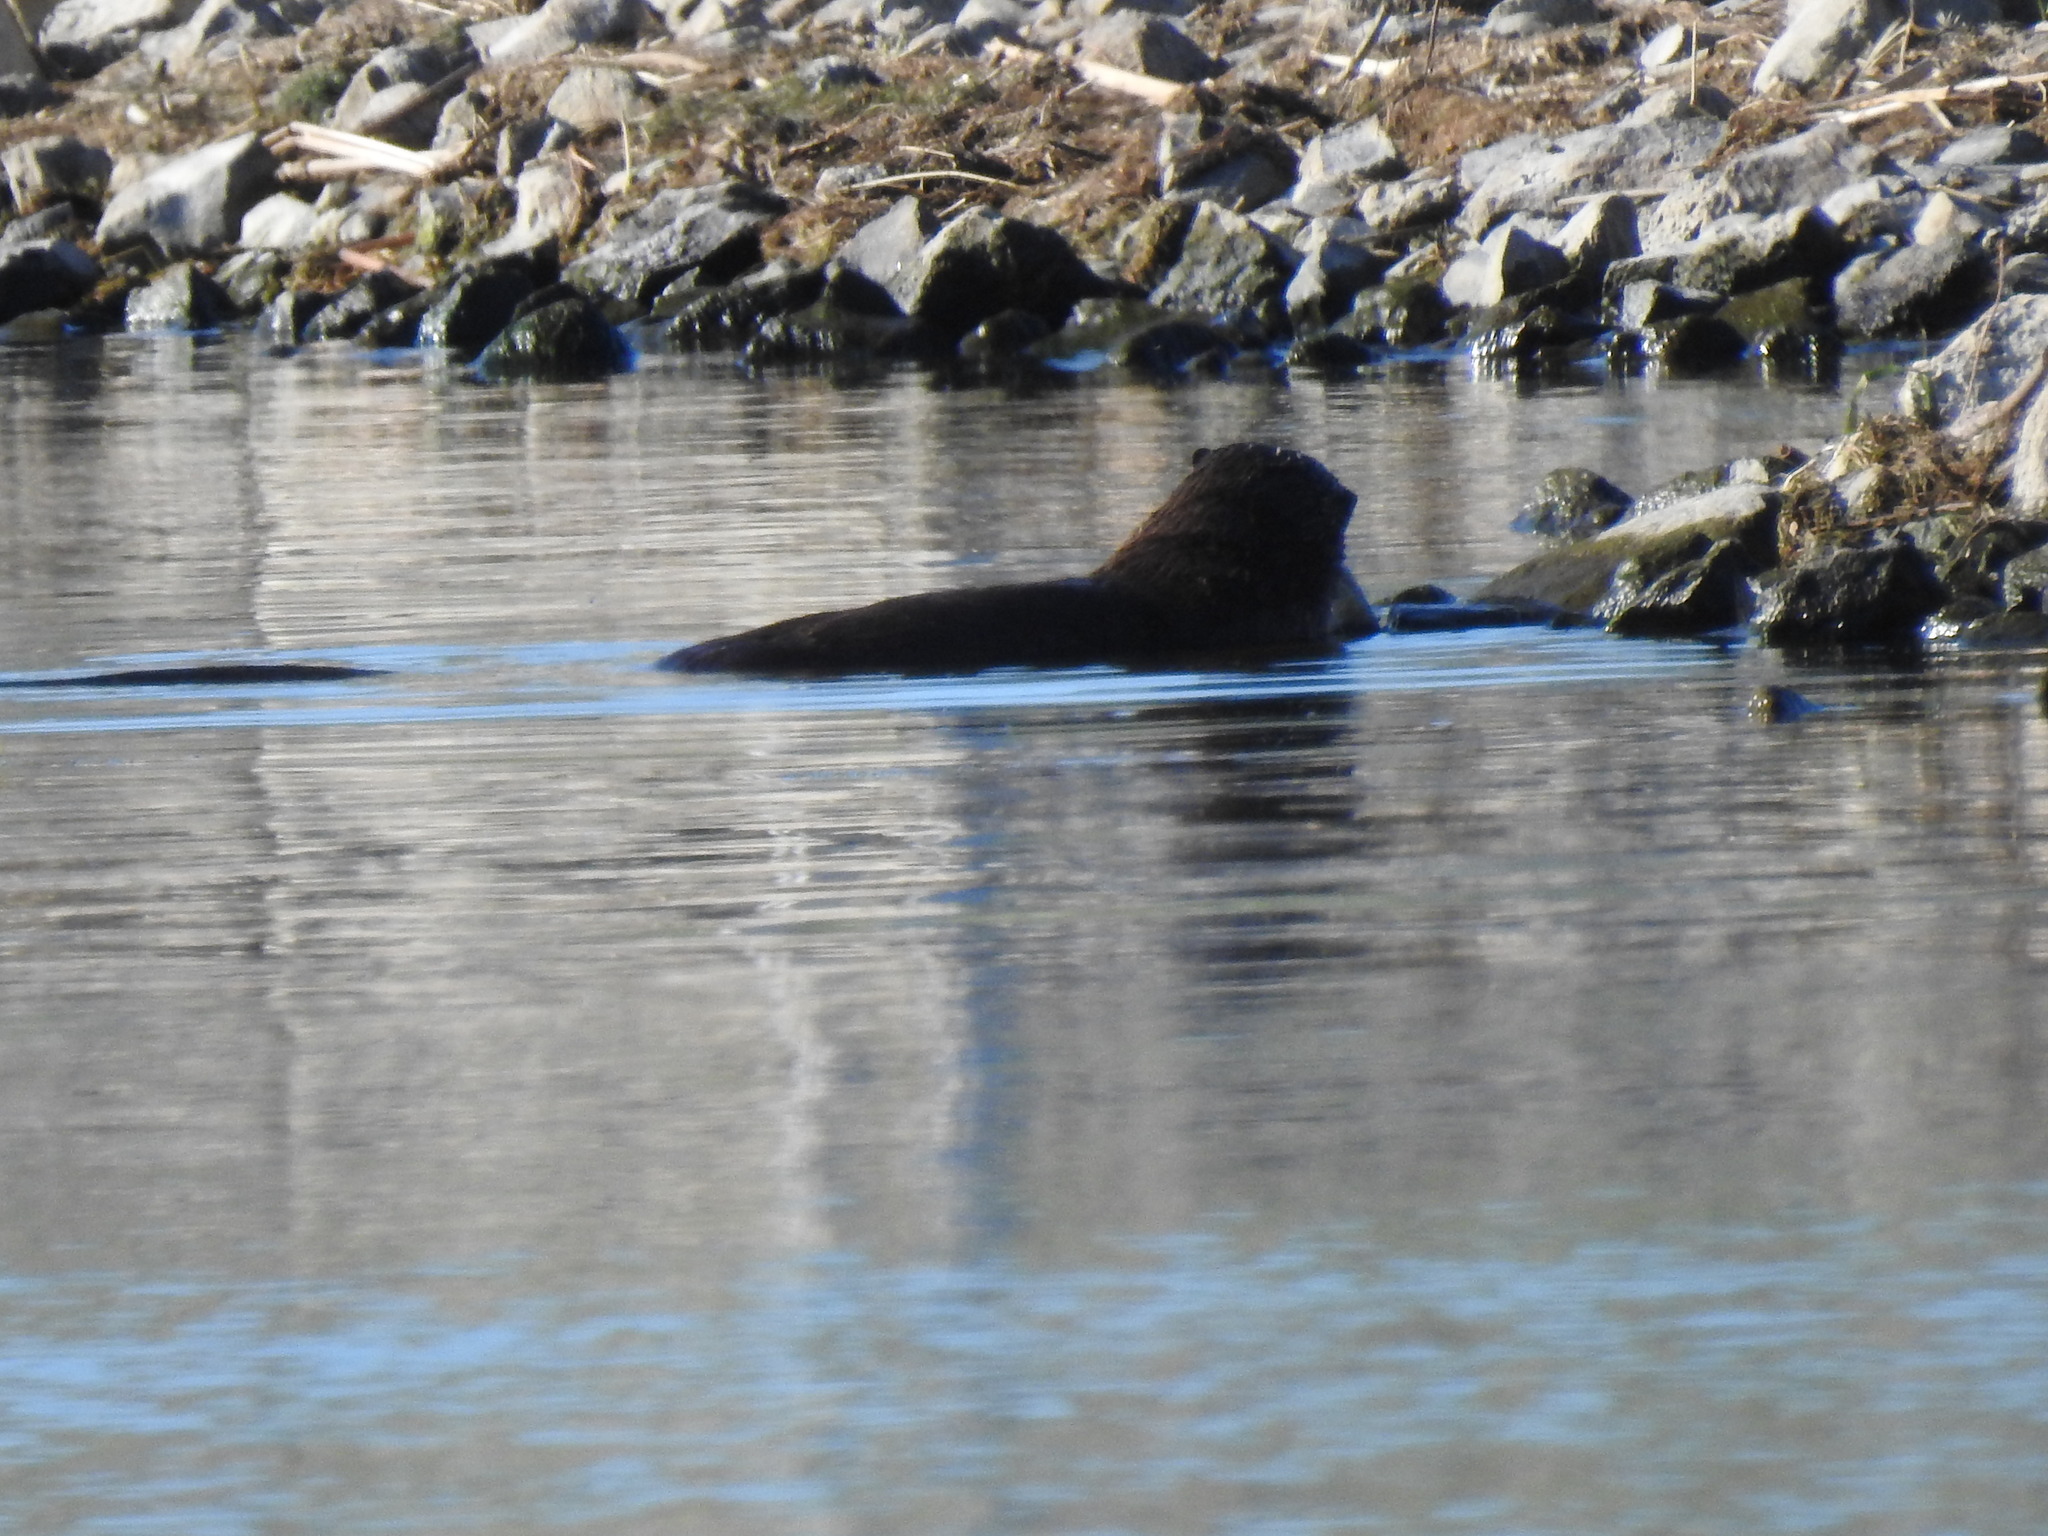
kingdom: Animalia
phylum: Chordata
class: Mammalia
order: Carnivora
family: Mustelidae
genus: Lontra
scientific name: Lontra canadensis
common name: North american river otter
